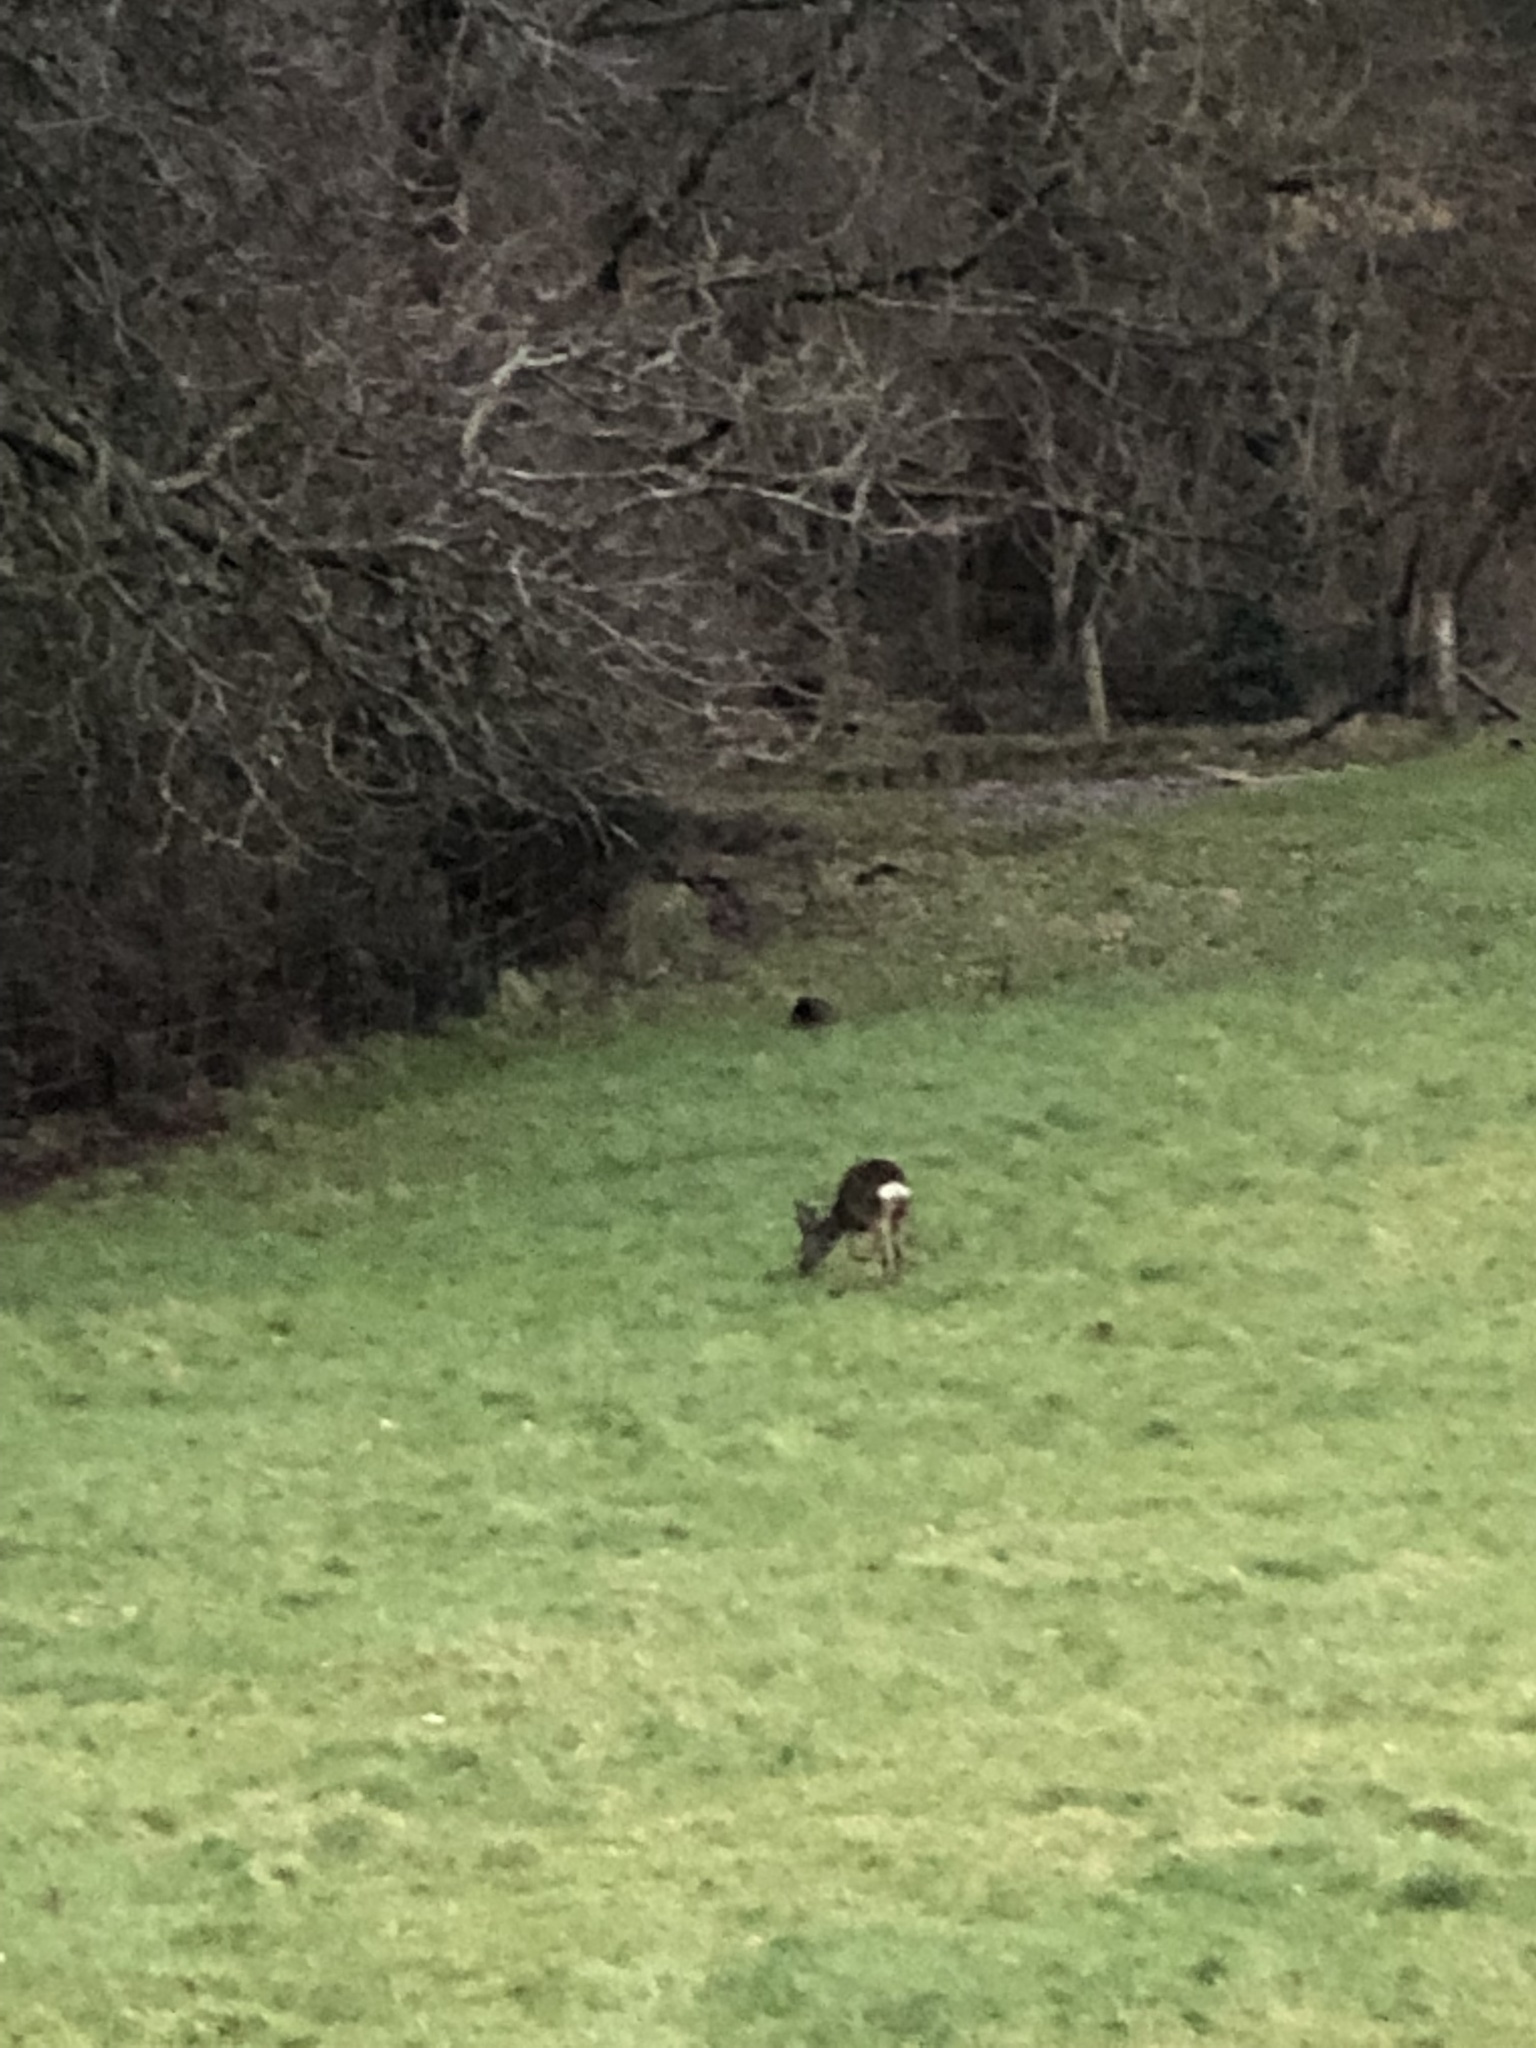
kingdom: Animalia
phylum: Chordata
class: Mammalia
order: Artiodactyla
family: Cervidae
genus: Capreolus
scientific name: Capreolus capreolus
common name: Western roe deer
